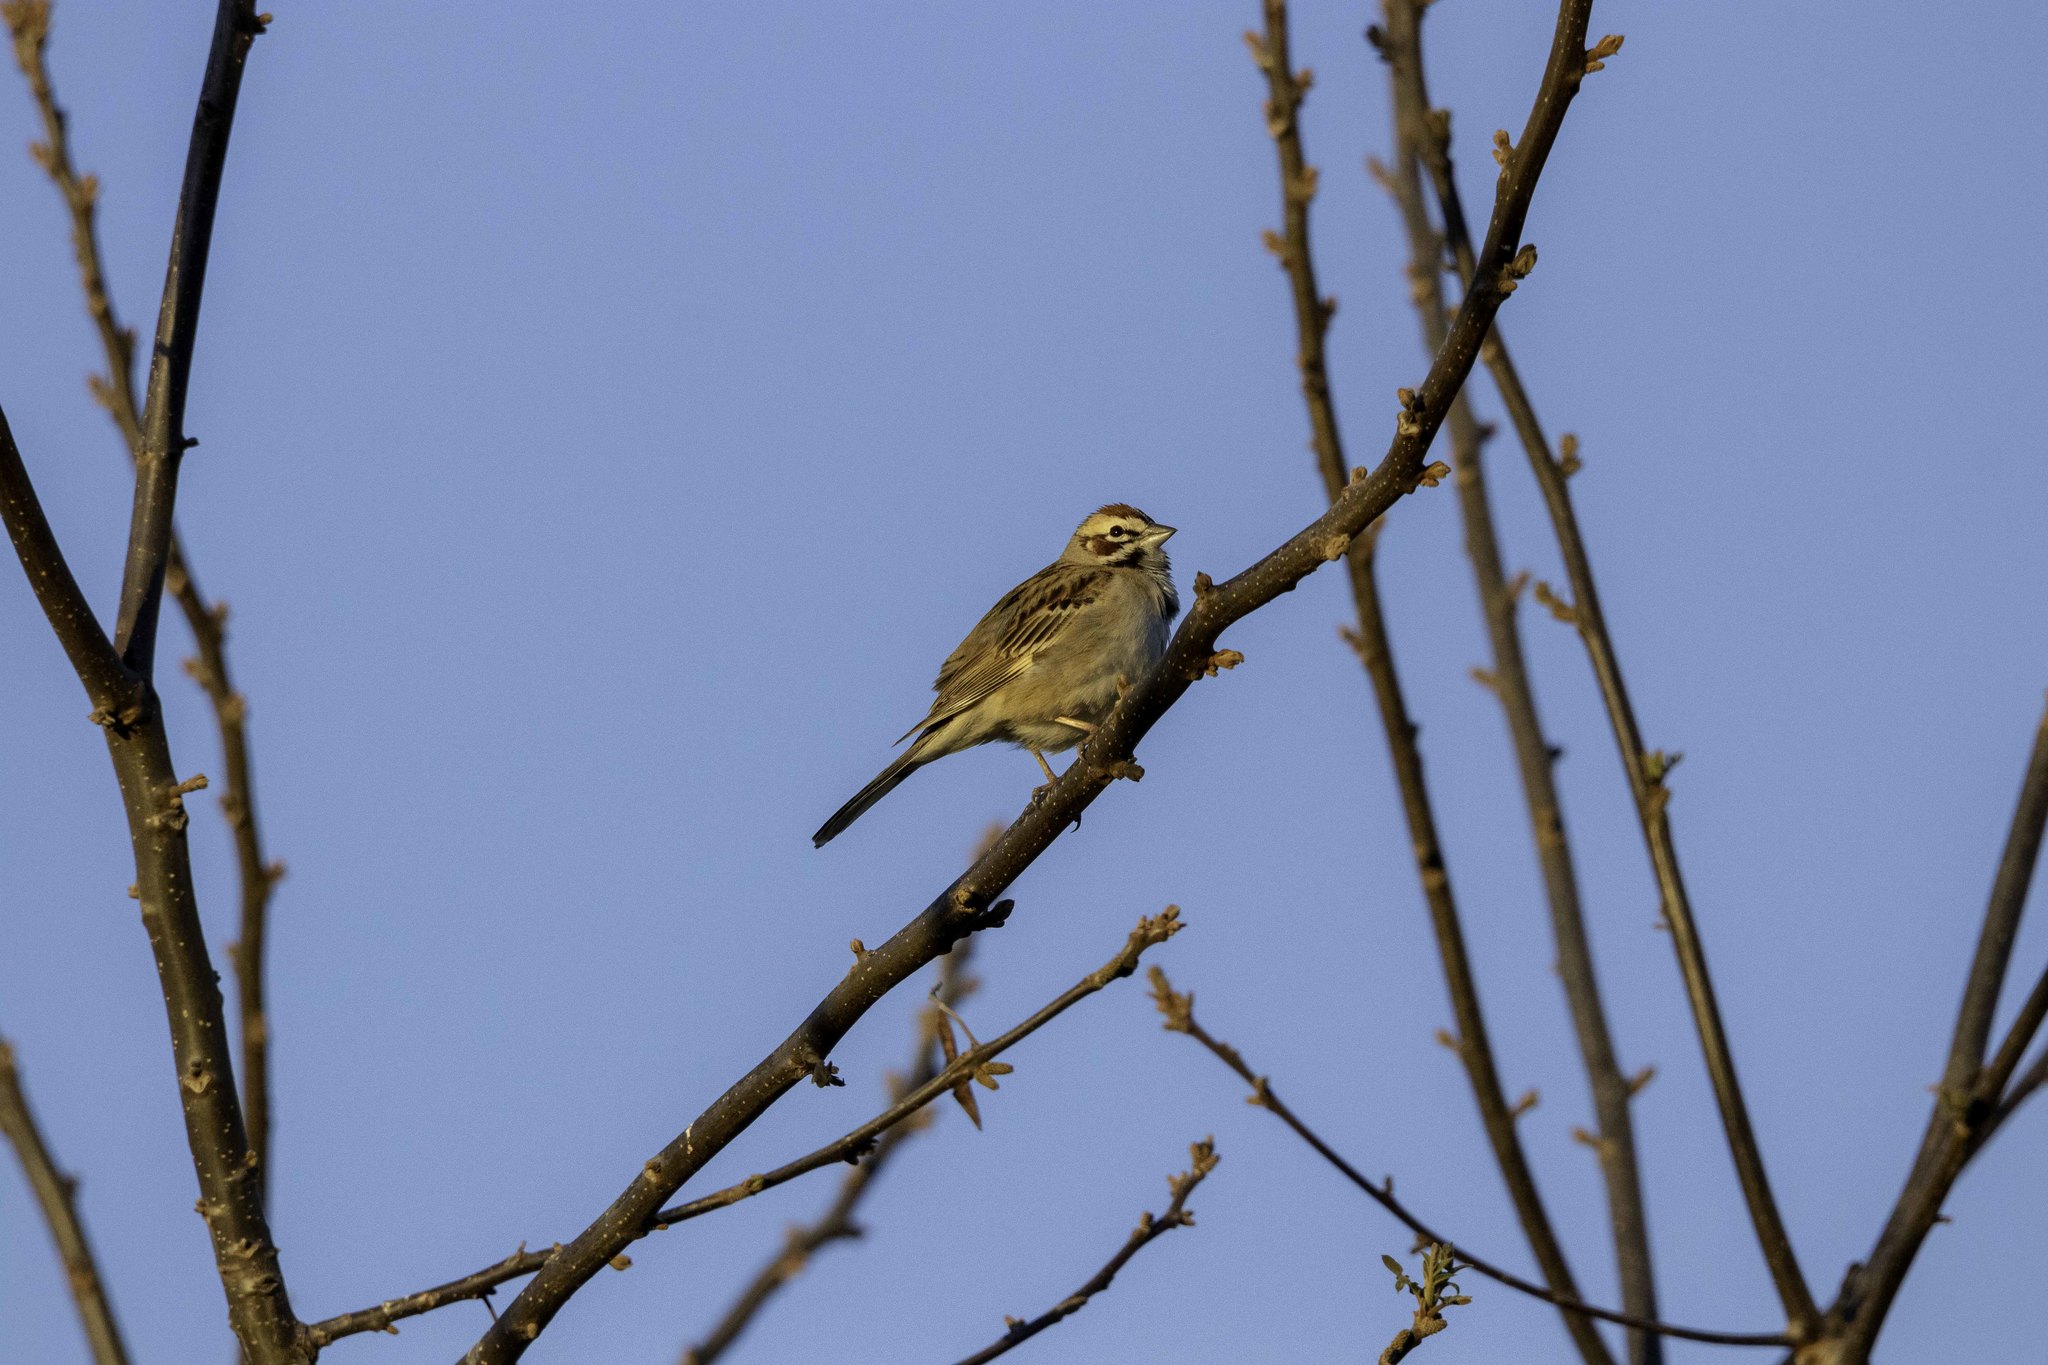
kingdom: Animalia
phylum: Chordata
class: Aves
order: Passeriformes
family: Passerellidae
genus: Chondestes
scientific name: Chondestes grammacus
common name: Lark sparrow
